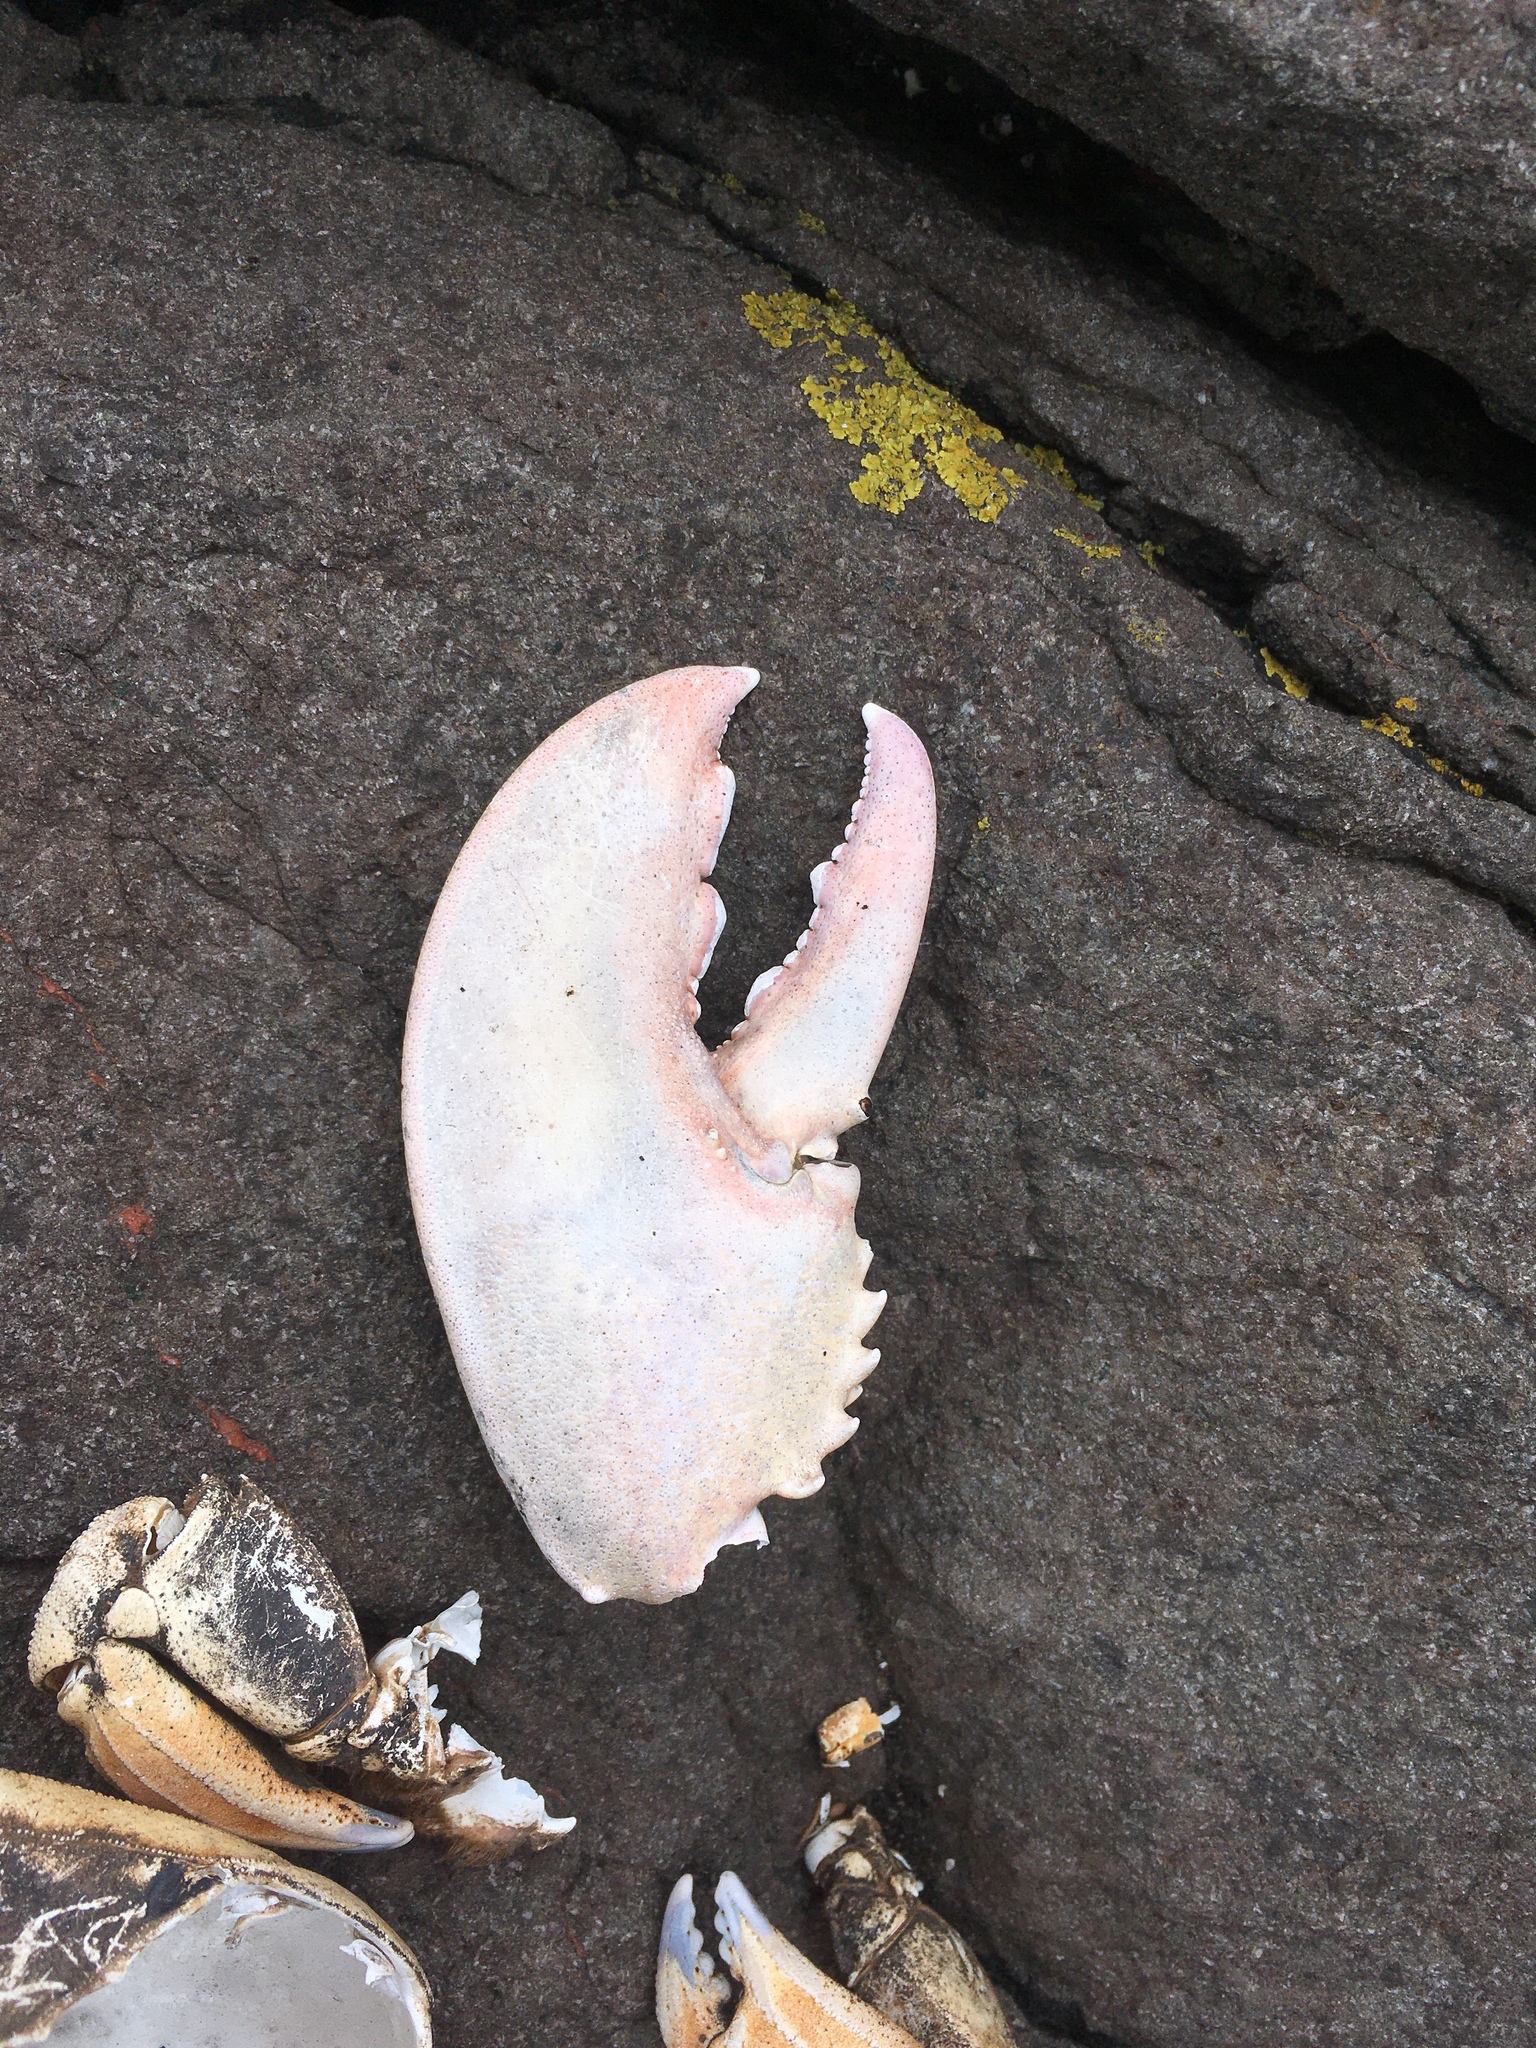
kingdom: Animalia
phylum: Arthropoda
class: Malacostraca
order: Decapoda
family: Nephropidae
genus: Homarus
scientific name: Homarus americanus
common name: American lobster
